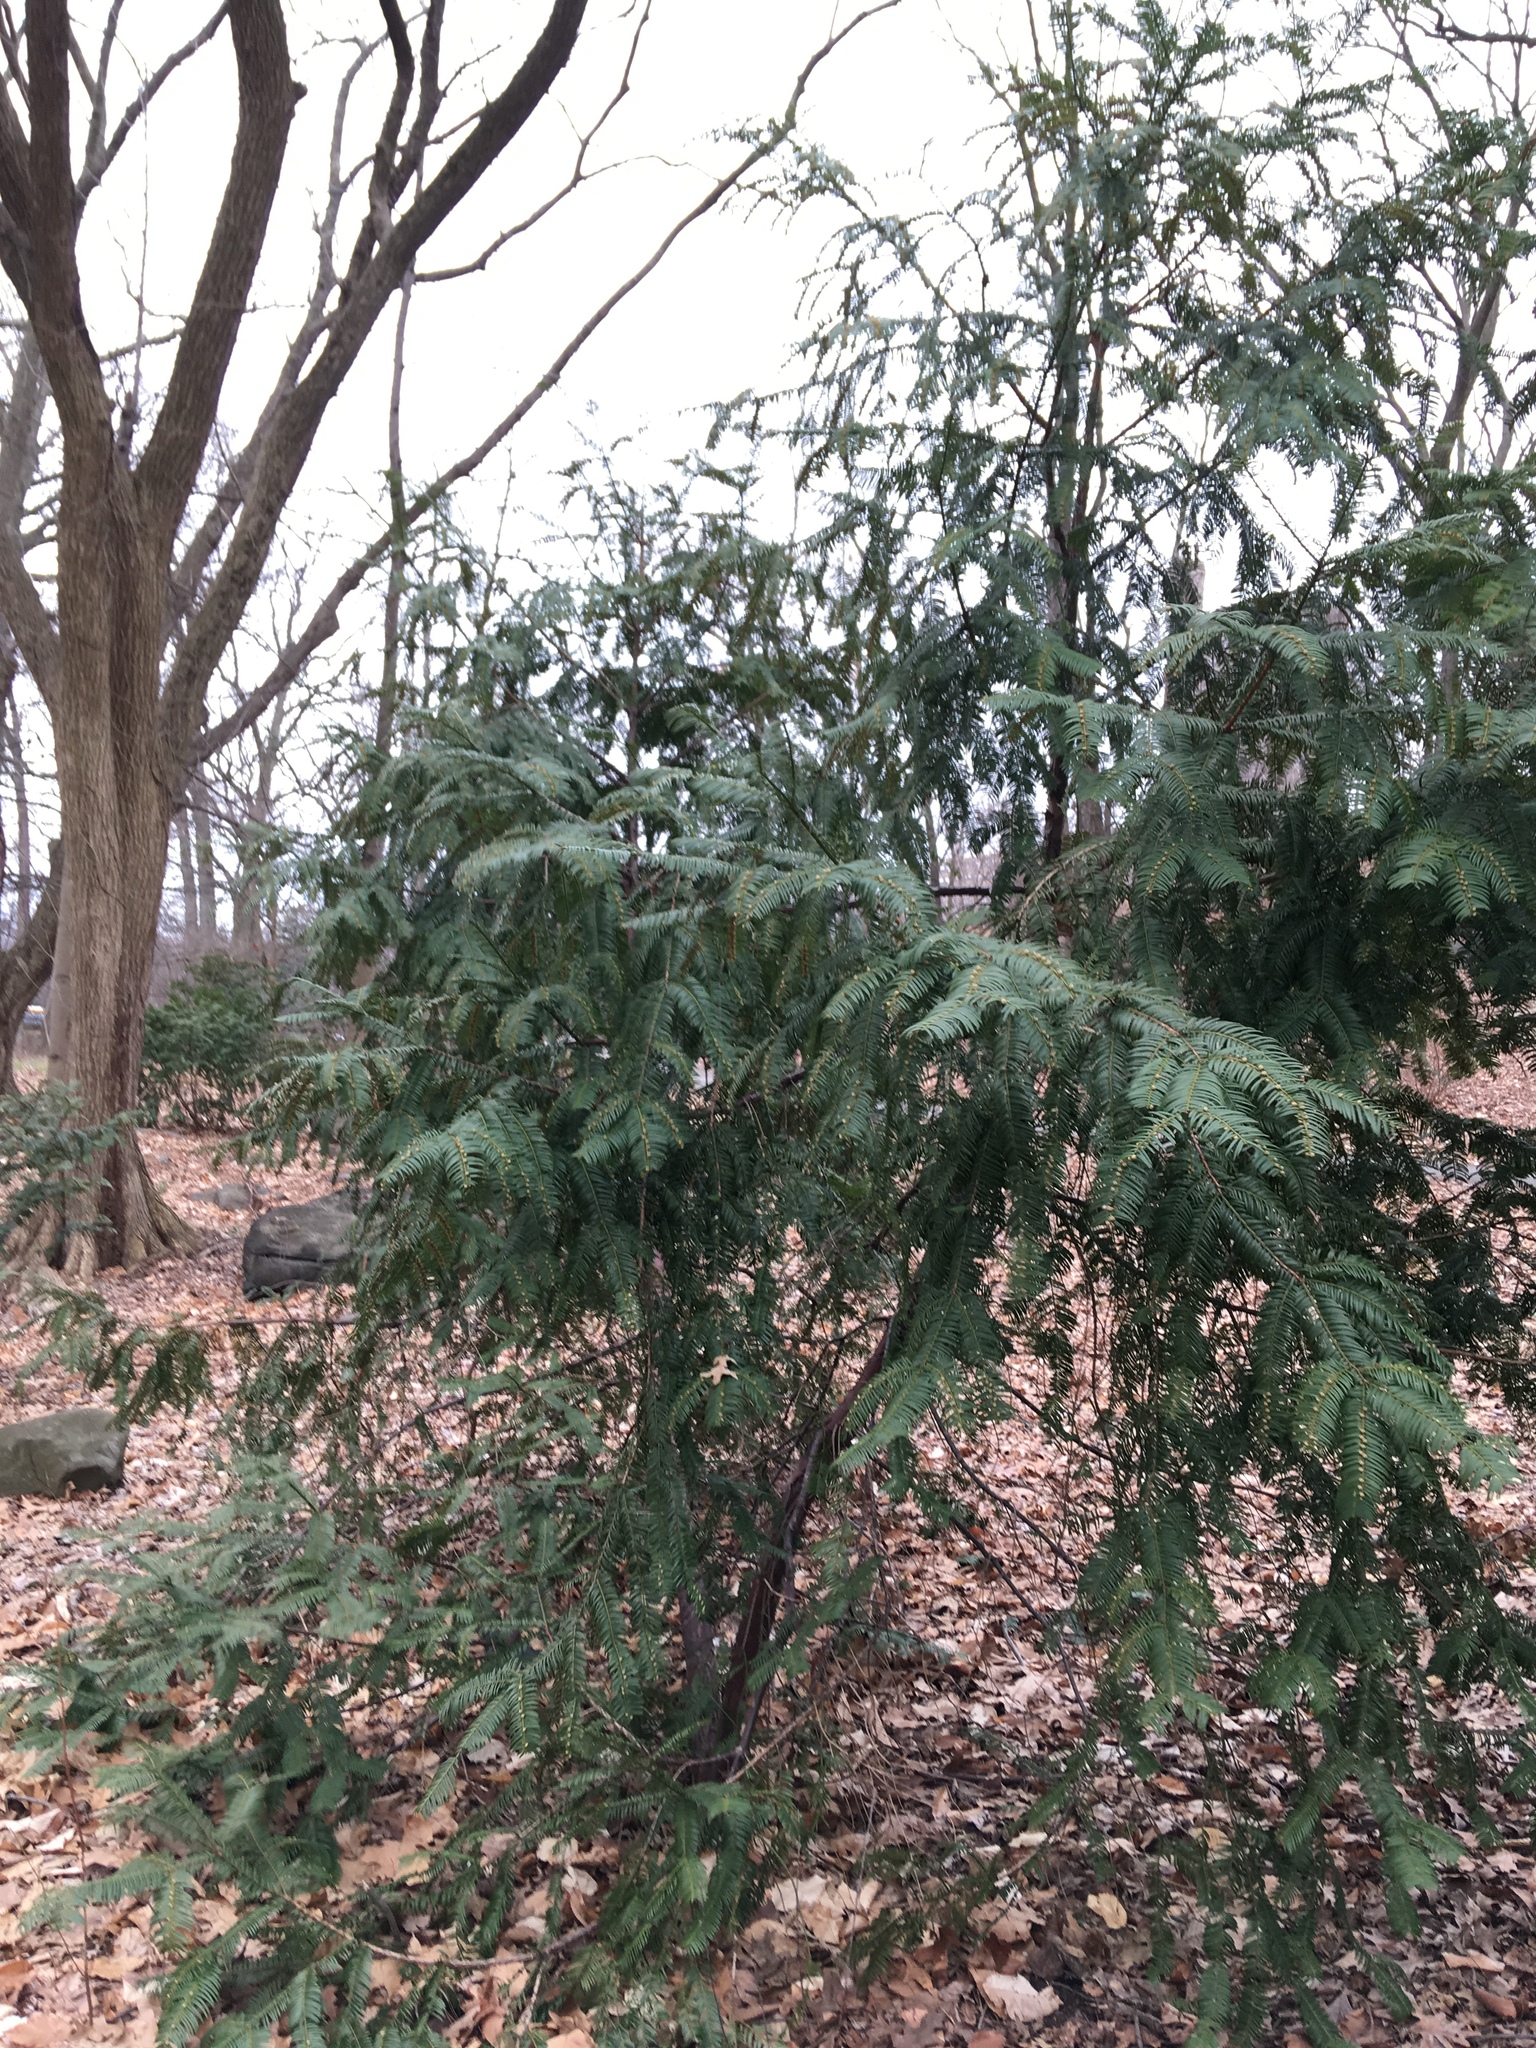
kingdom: Plantae
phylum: Tracheophyta
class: Pinopsida
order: Pinales
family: Cephalotaxaceae
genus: Cephalotaxus
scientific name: Cephalotaxus harringtonia
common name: Japanese plum-yew
